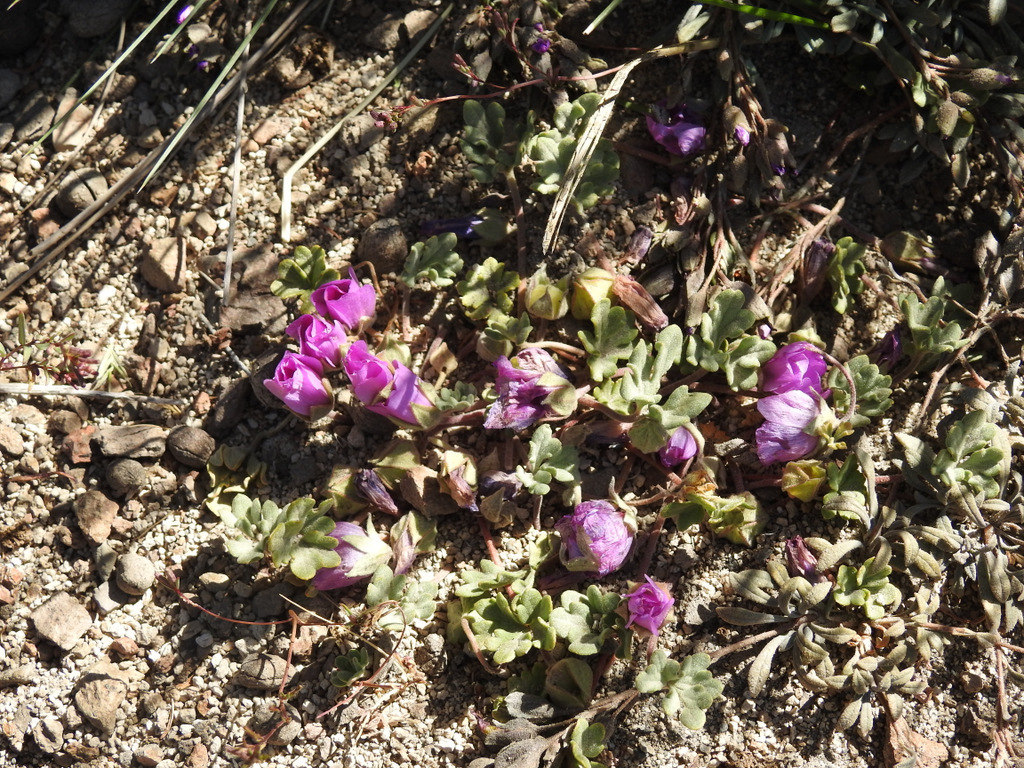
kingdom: Plantae
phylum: Tracheophyta
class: Magnoliopsida
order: Malvales
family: Malvaceae
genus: Tarasa
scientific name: Tarasa humilis
